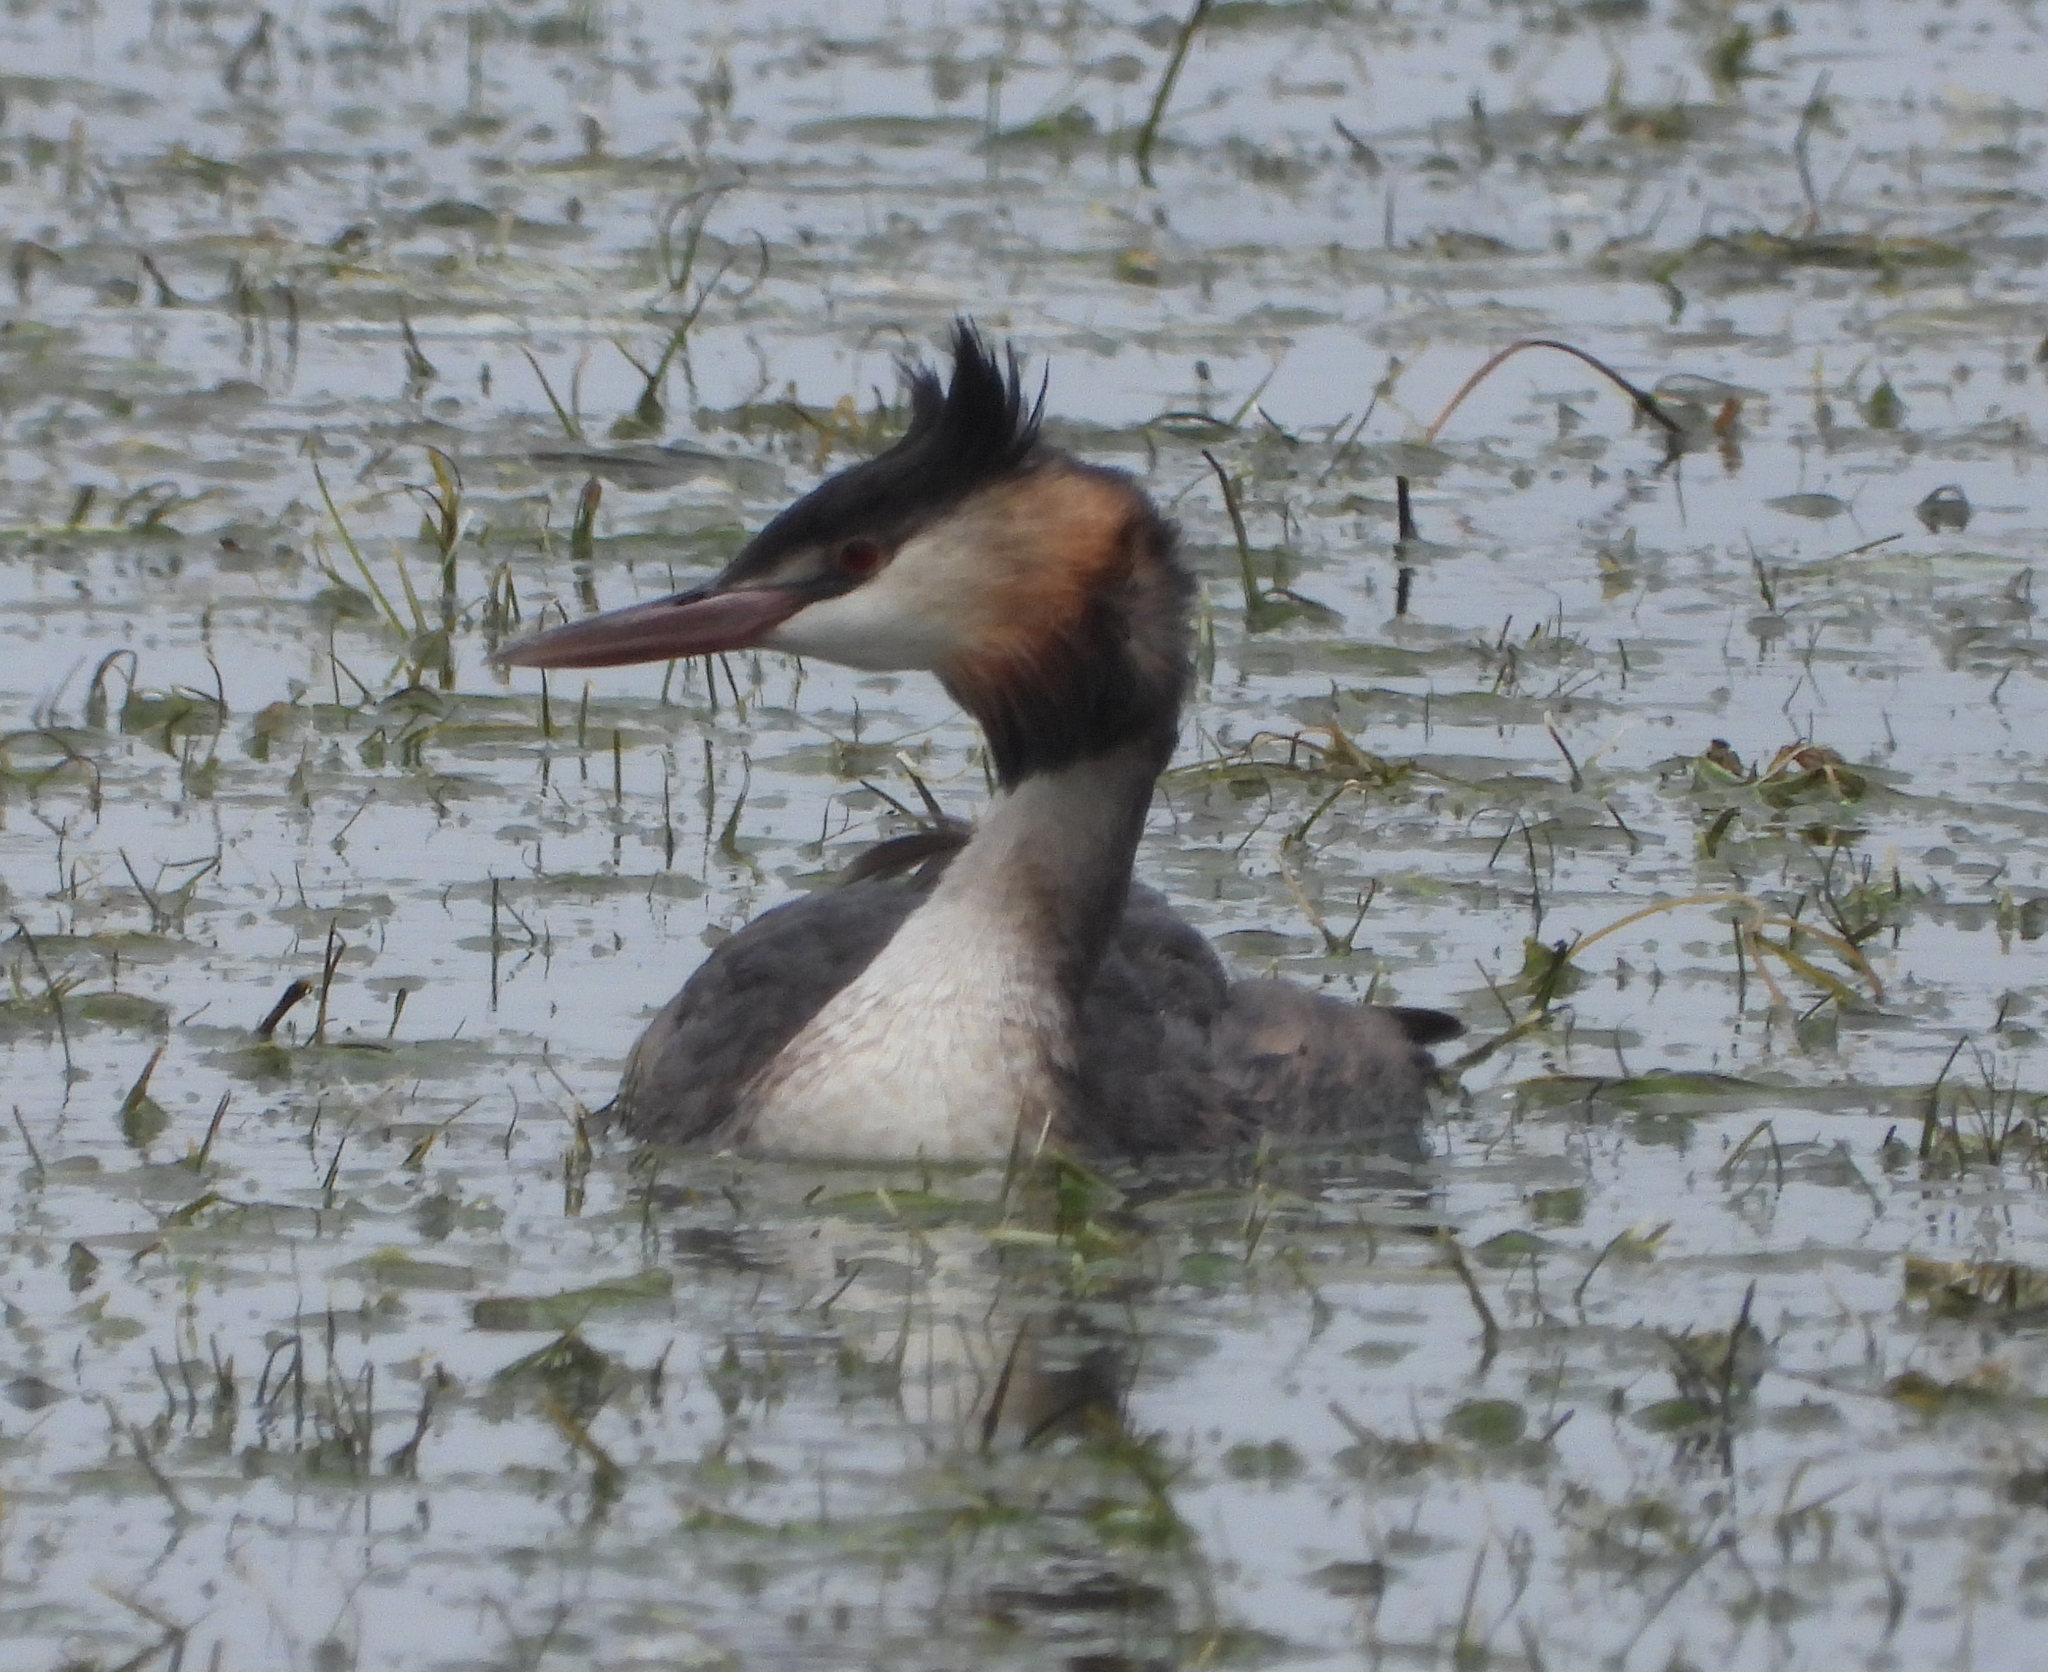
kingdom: Animalia
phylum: Chordata
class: Aves
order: Podicipediformes
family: Podicipedidae
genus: Podiceps
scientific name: Podiceps cristatus
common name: Great crested grebe
